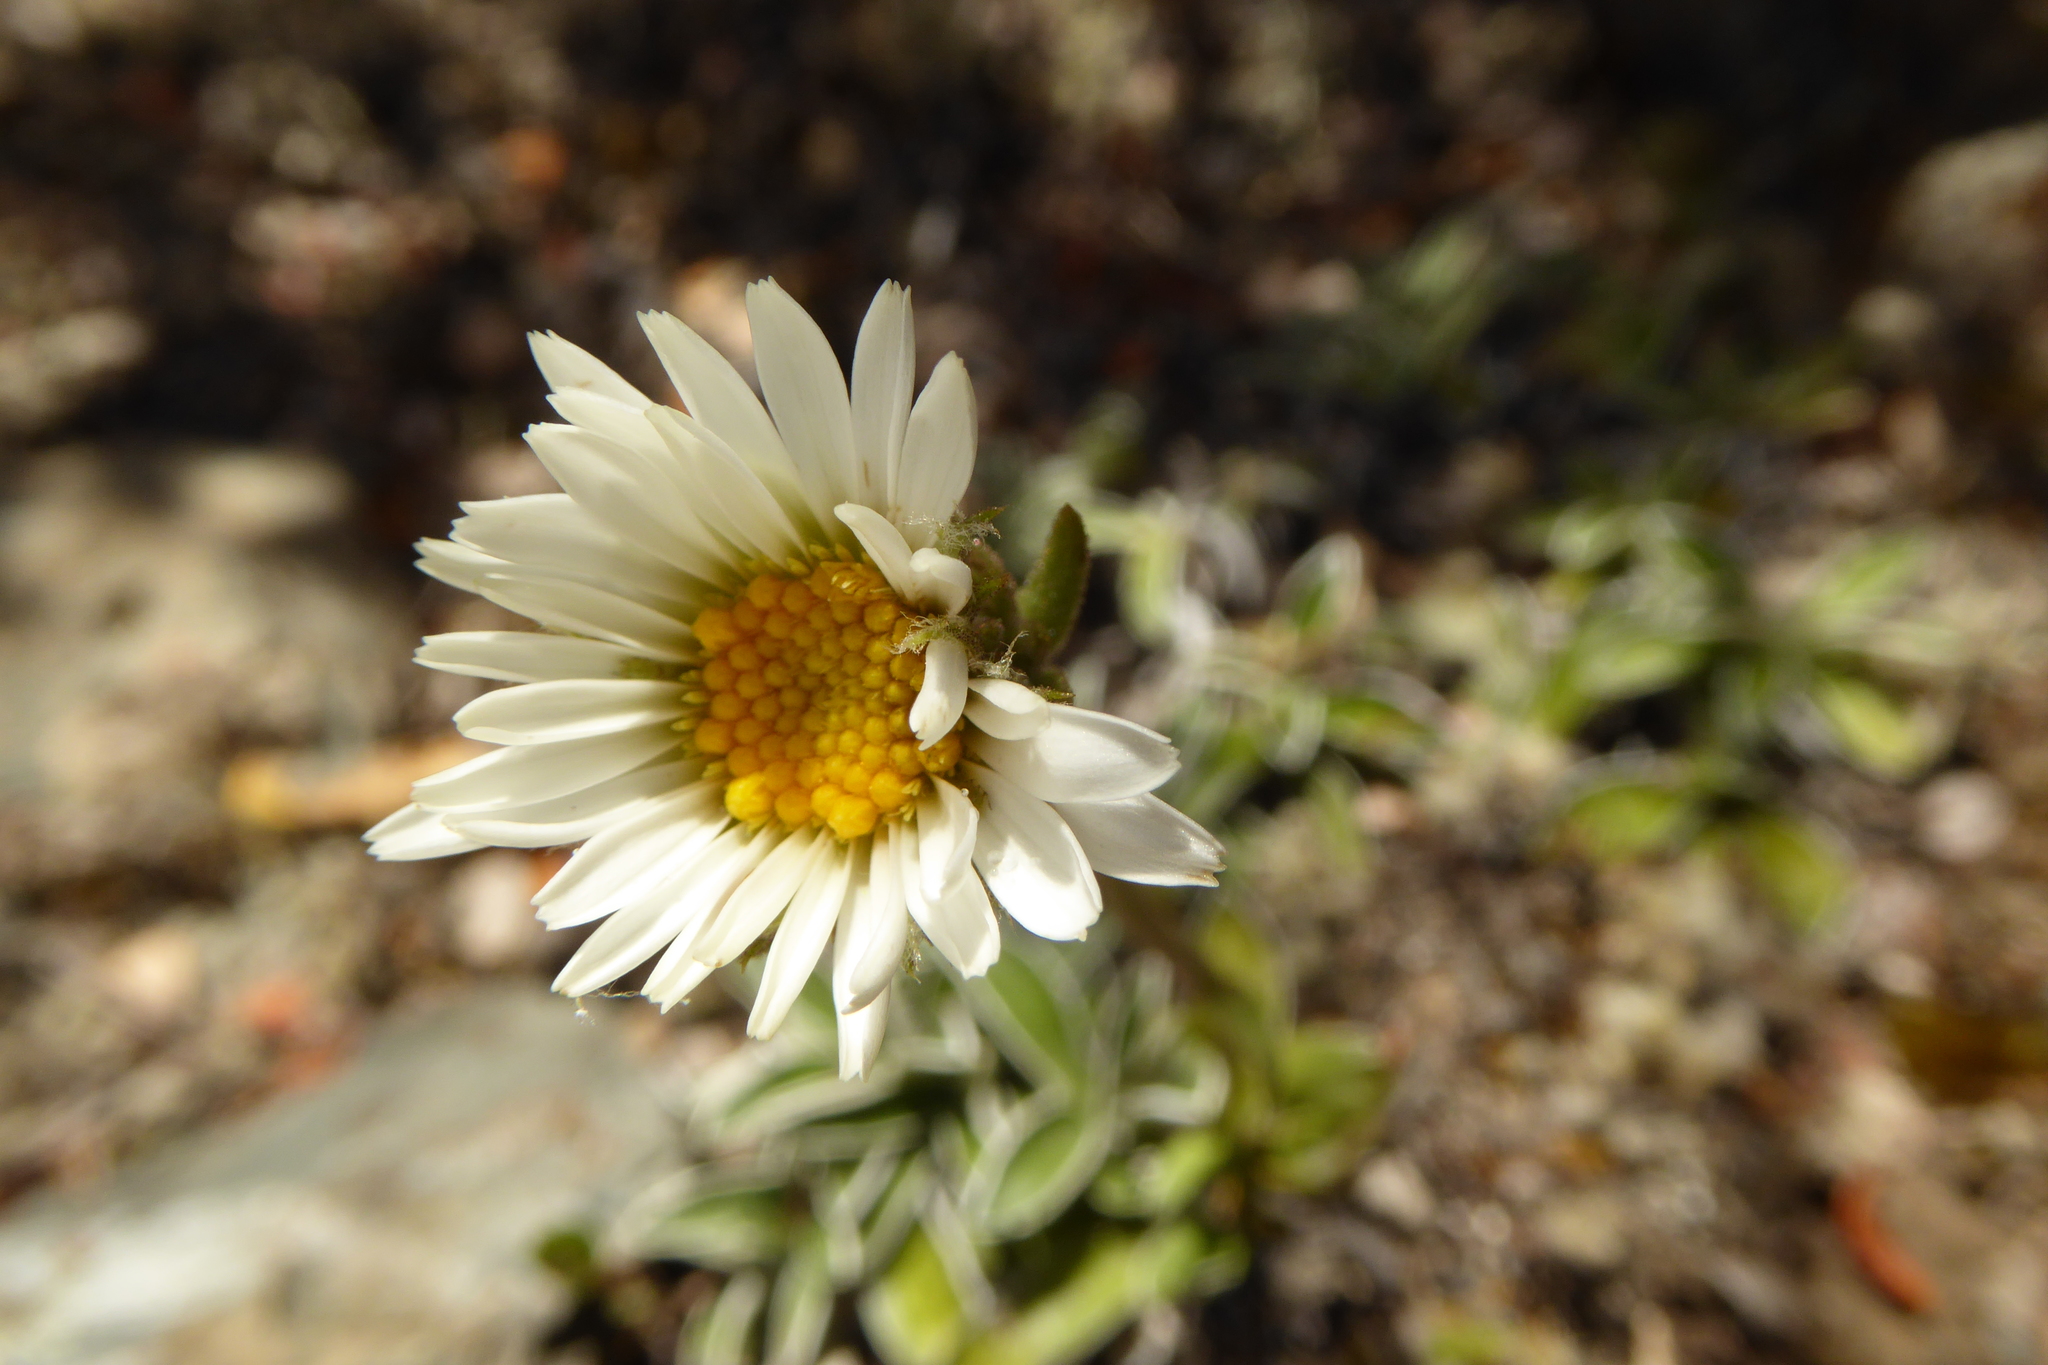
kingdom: Plantae
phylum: Tracheophyta
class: Magnoliopsida
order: Asterales
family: Asteraceae
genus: Celmisia
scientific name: Celmisia hieraciifolia
